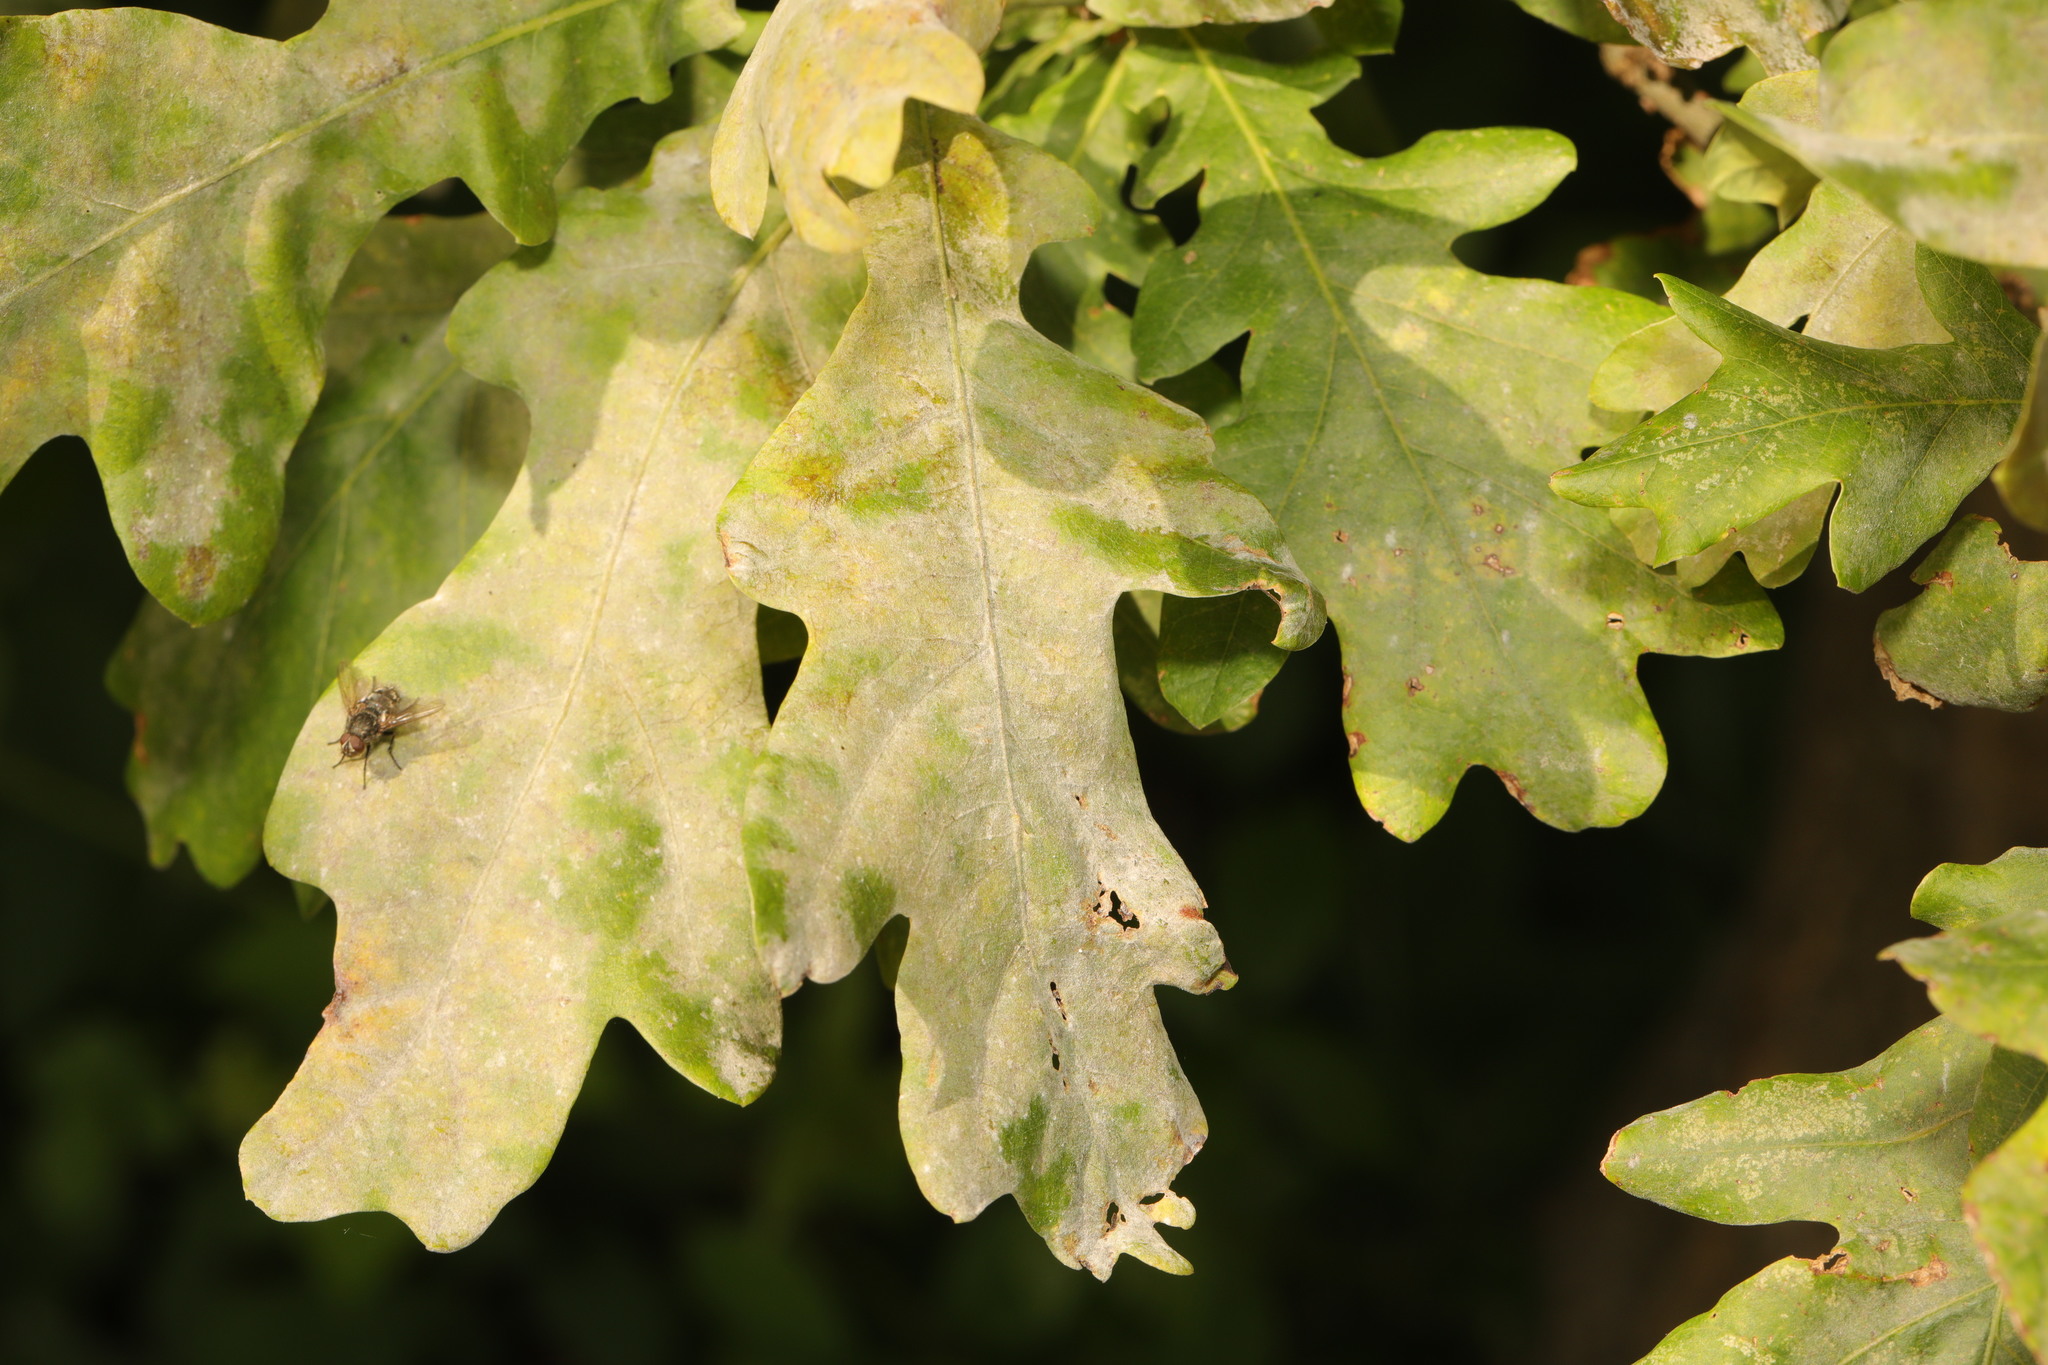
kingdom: Fungi
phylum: Ascomycota
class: Leotiomycetes
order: Helotiales
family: Erysiphaceae
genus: Erysiphe
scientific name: Erysiphe alphitoides
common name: Oak mildew
